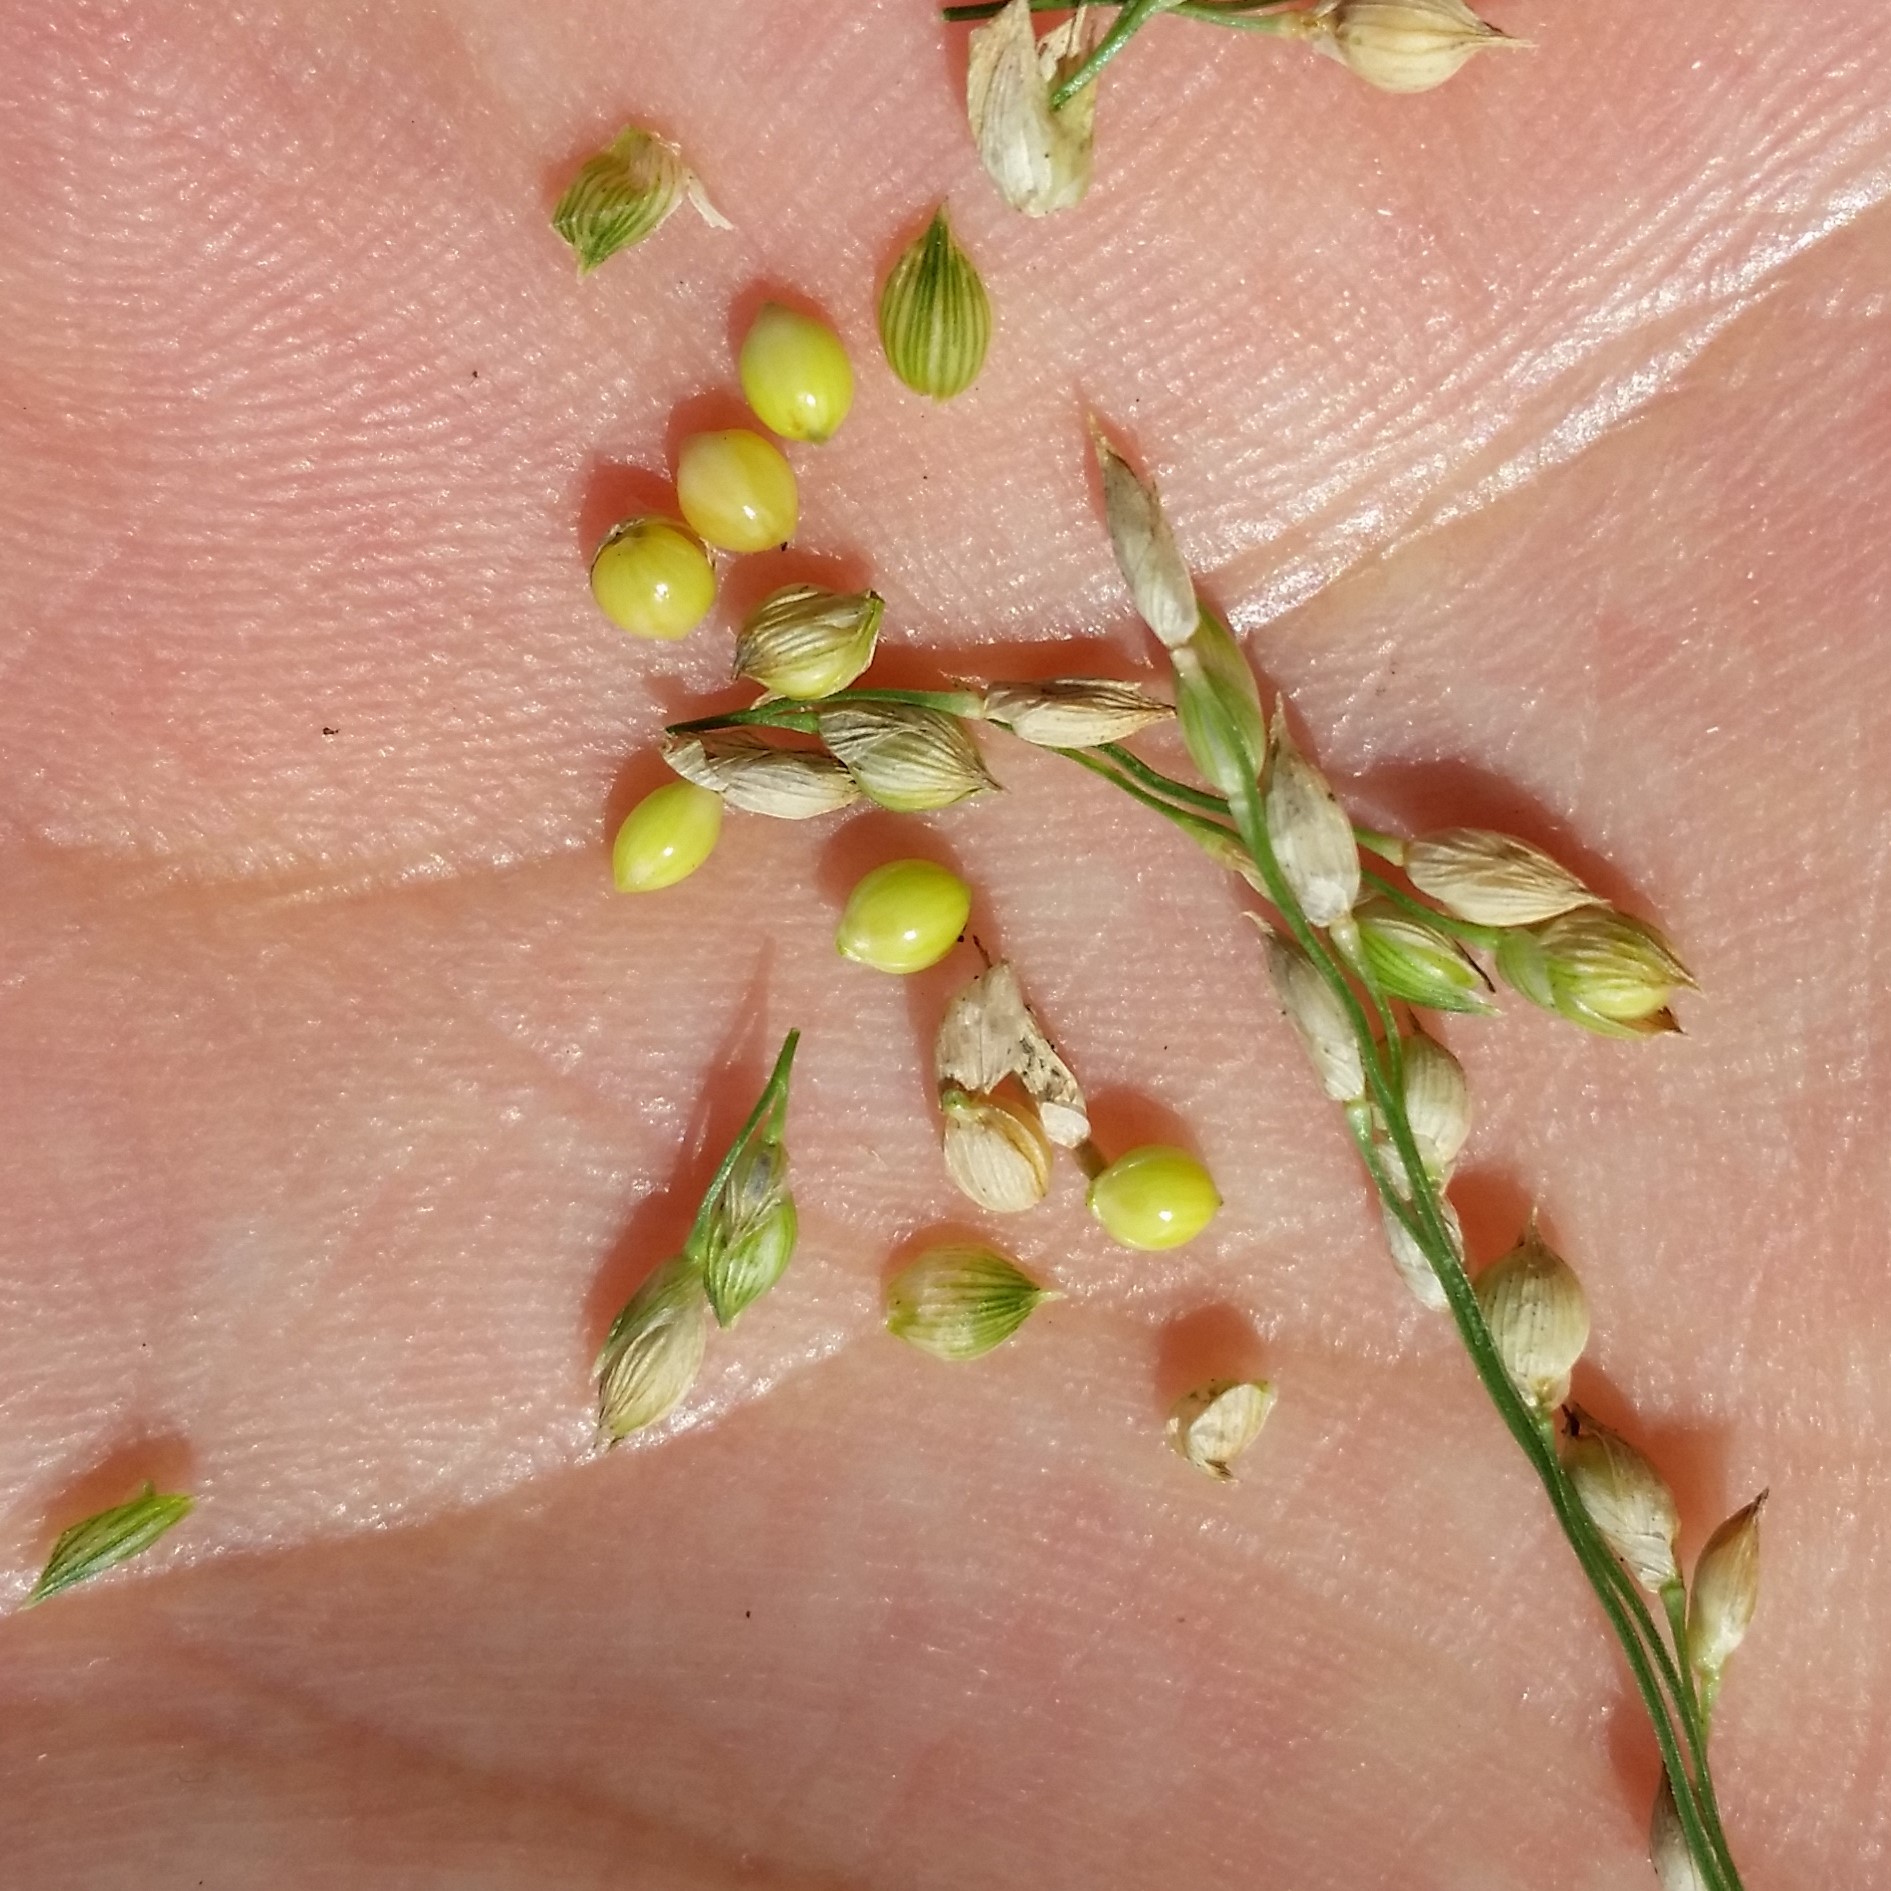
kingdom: Plantae
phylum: Tracheophyta
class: Liliopsida
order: Poales
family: Poaceae
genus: Panicum
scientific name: Panicum miliaceum
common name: Common millet
